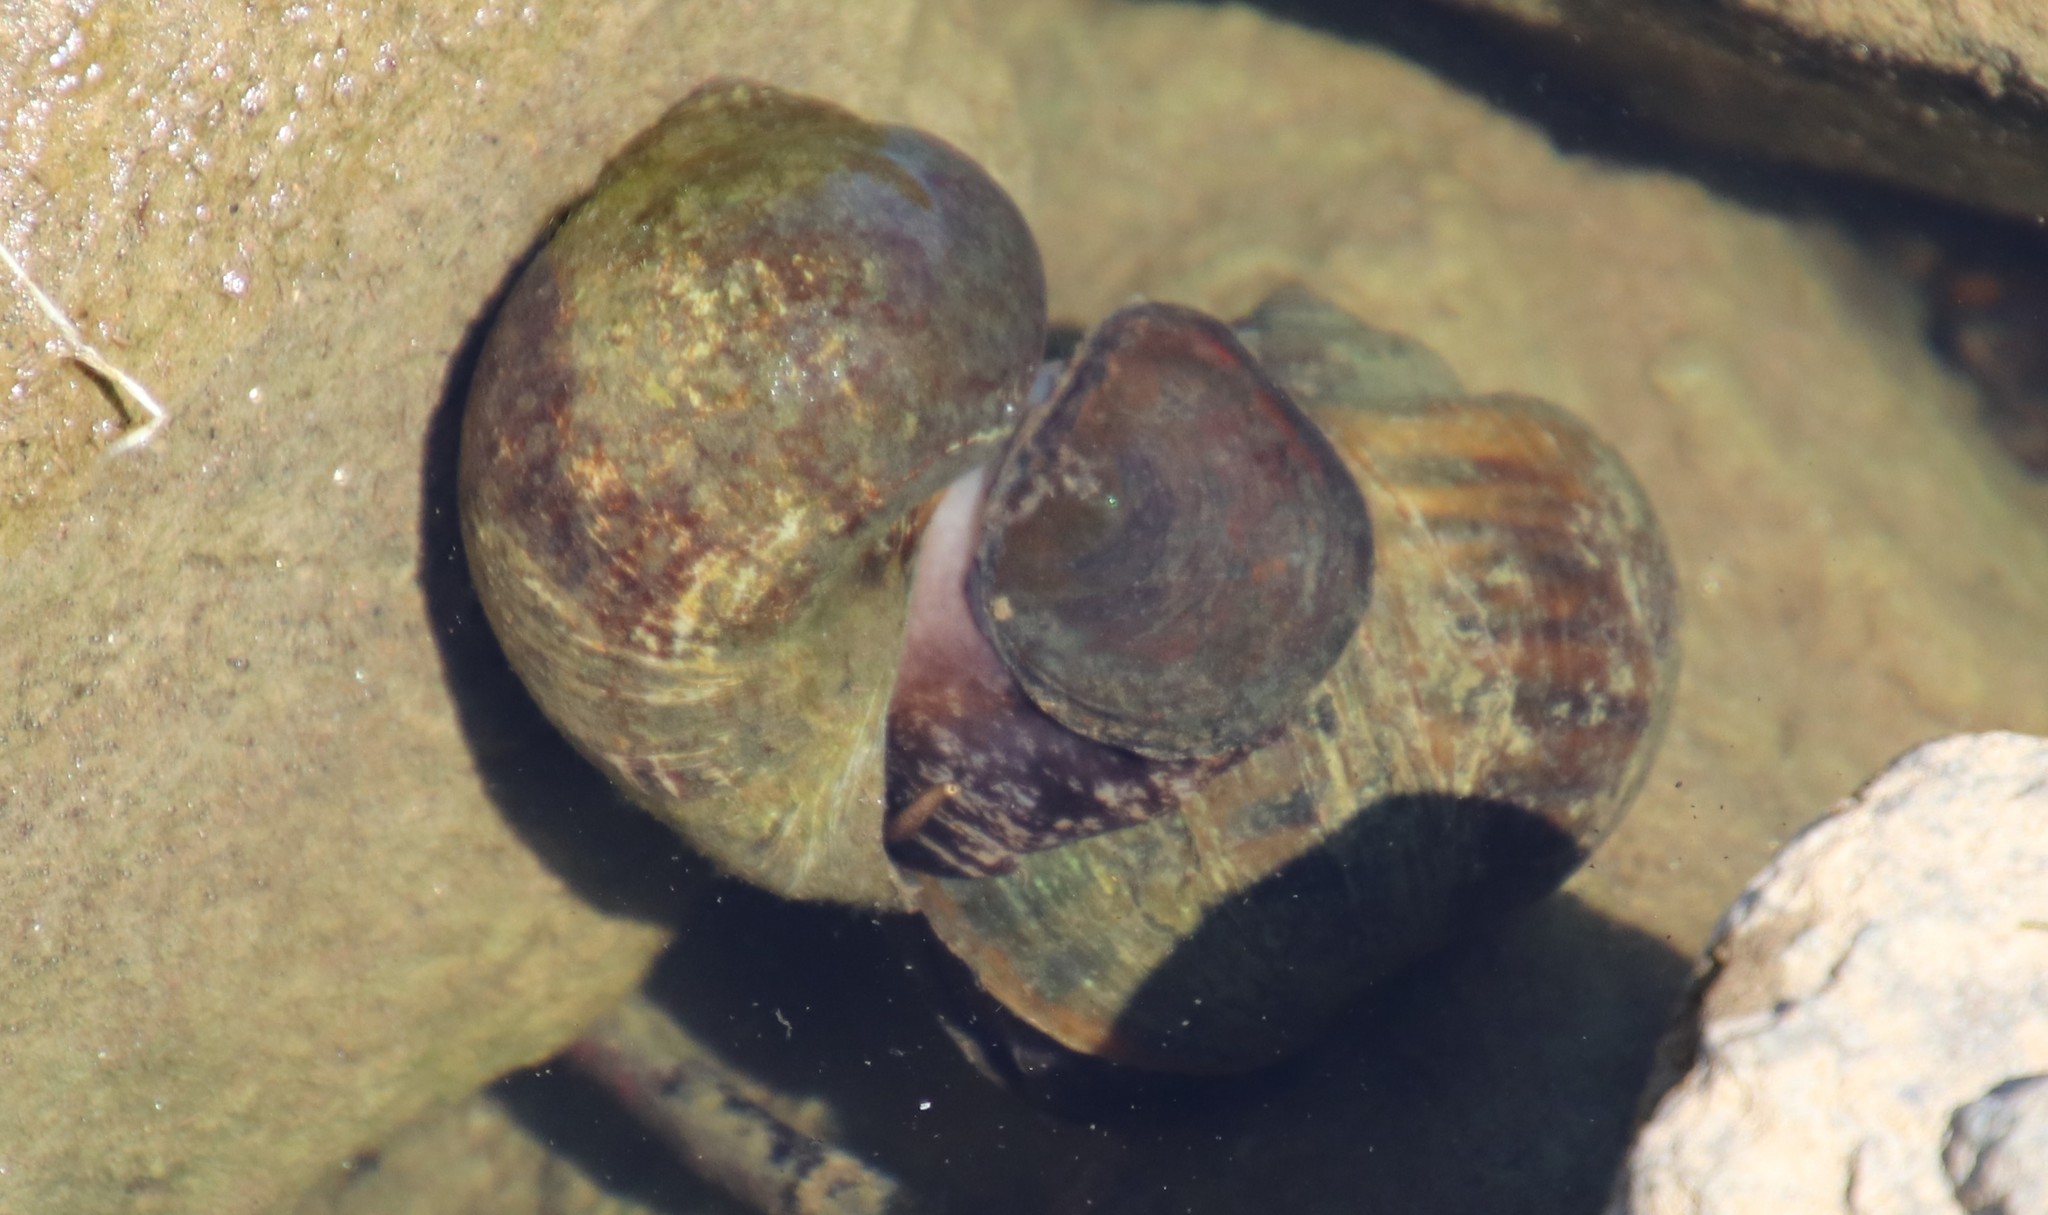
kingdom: Animalia
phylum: Mollusca
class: Gastropoda
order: Architaenioglossa
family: Ampullariidae
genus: Pomacea
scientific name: Pomacea canaliculata
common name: Channeled applesnail
